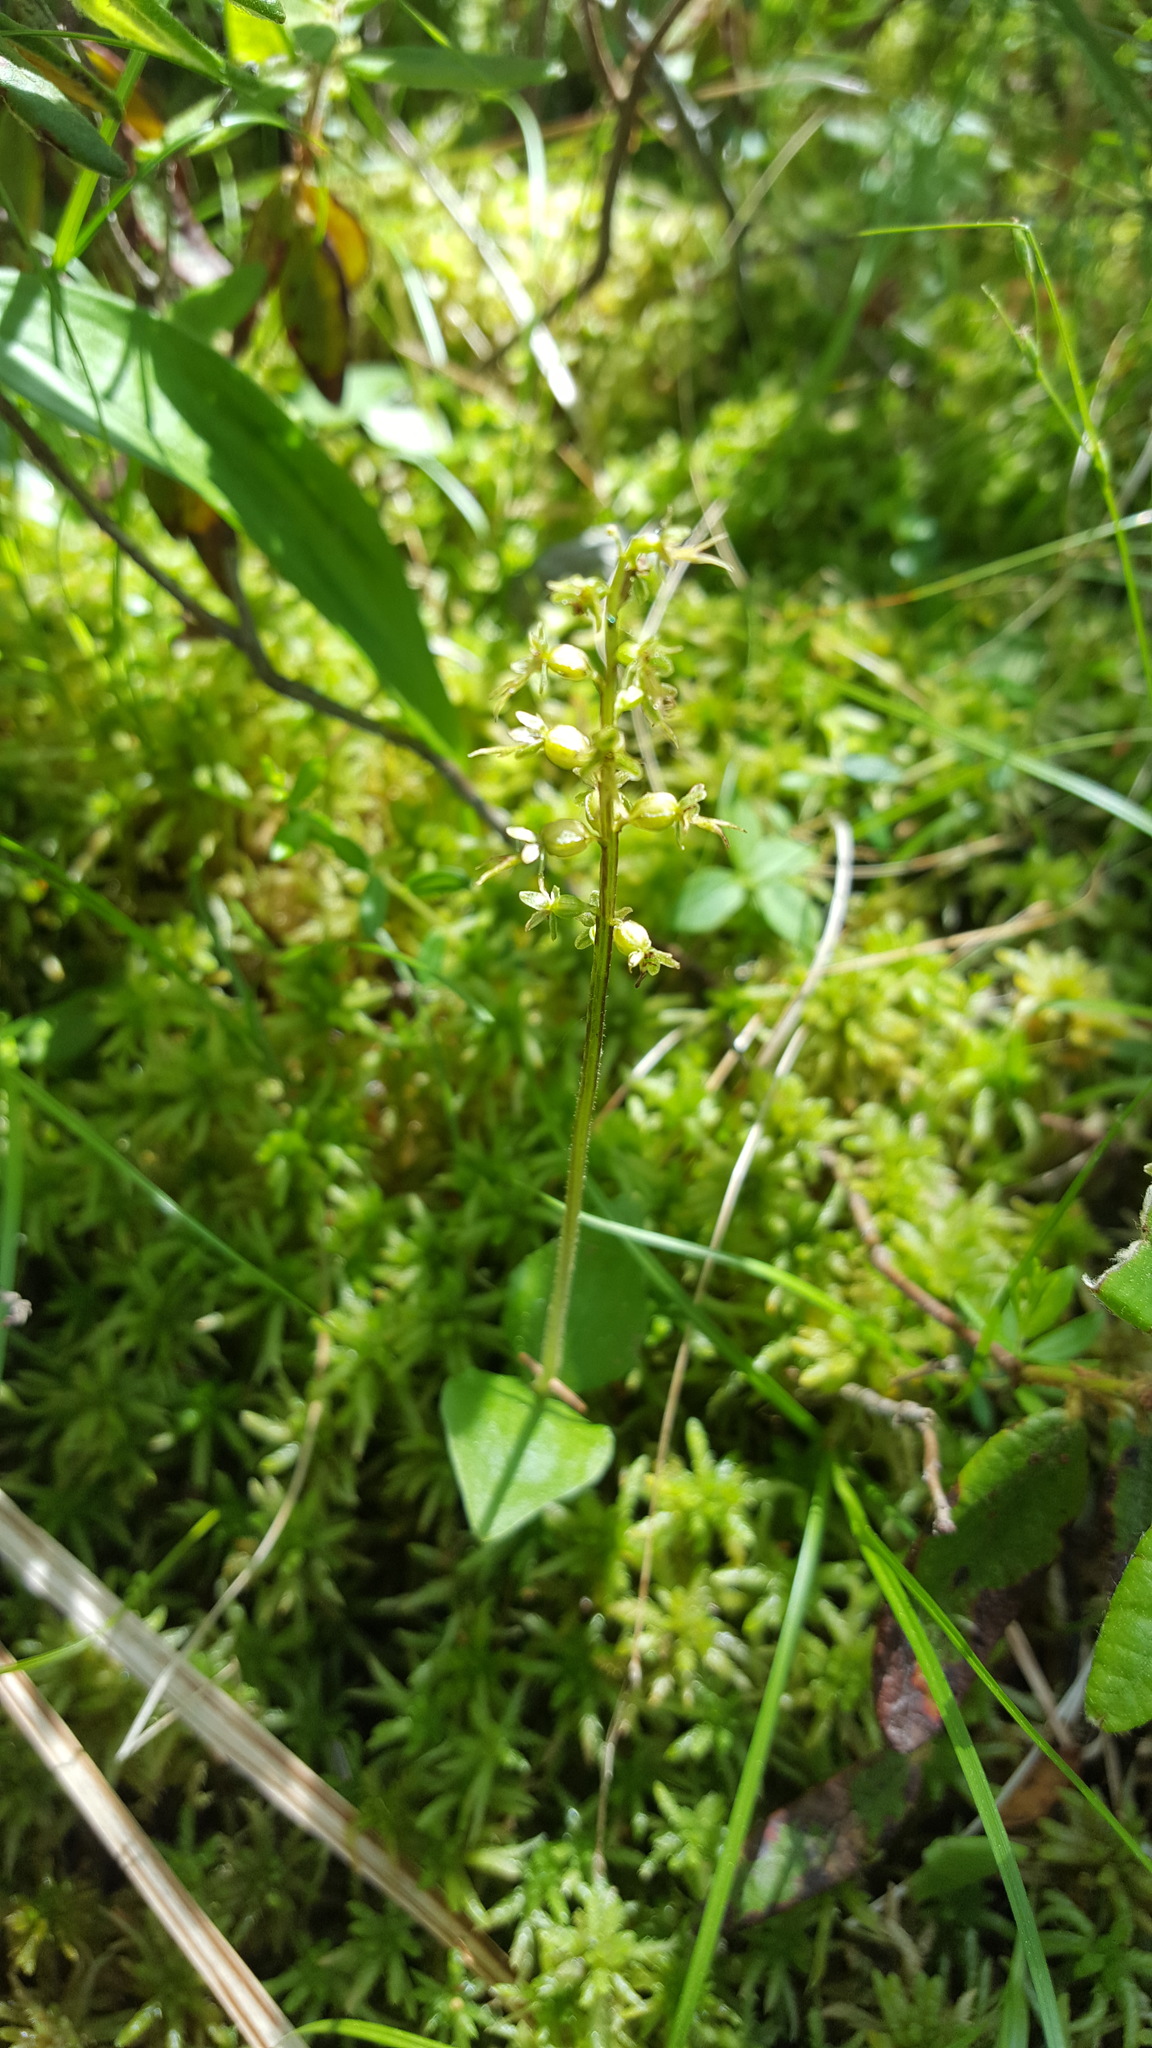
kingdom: Plantae
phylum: Tracheophyta
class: Liliopsida
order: Asparagales
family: Orchidaceae
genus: Neottia
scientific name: Neottia cordata
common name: Lesser twayblade
